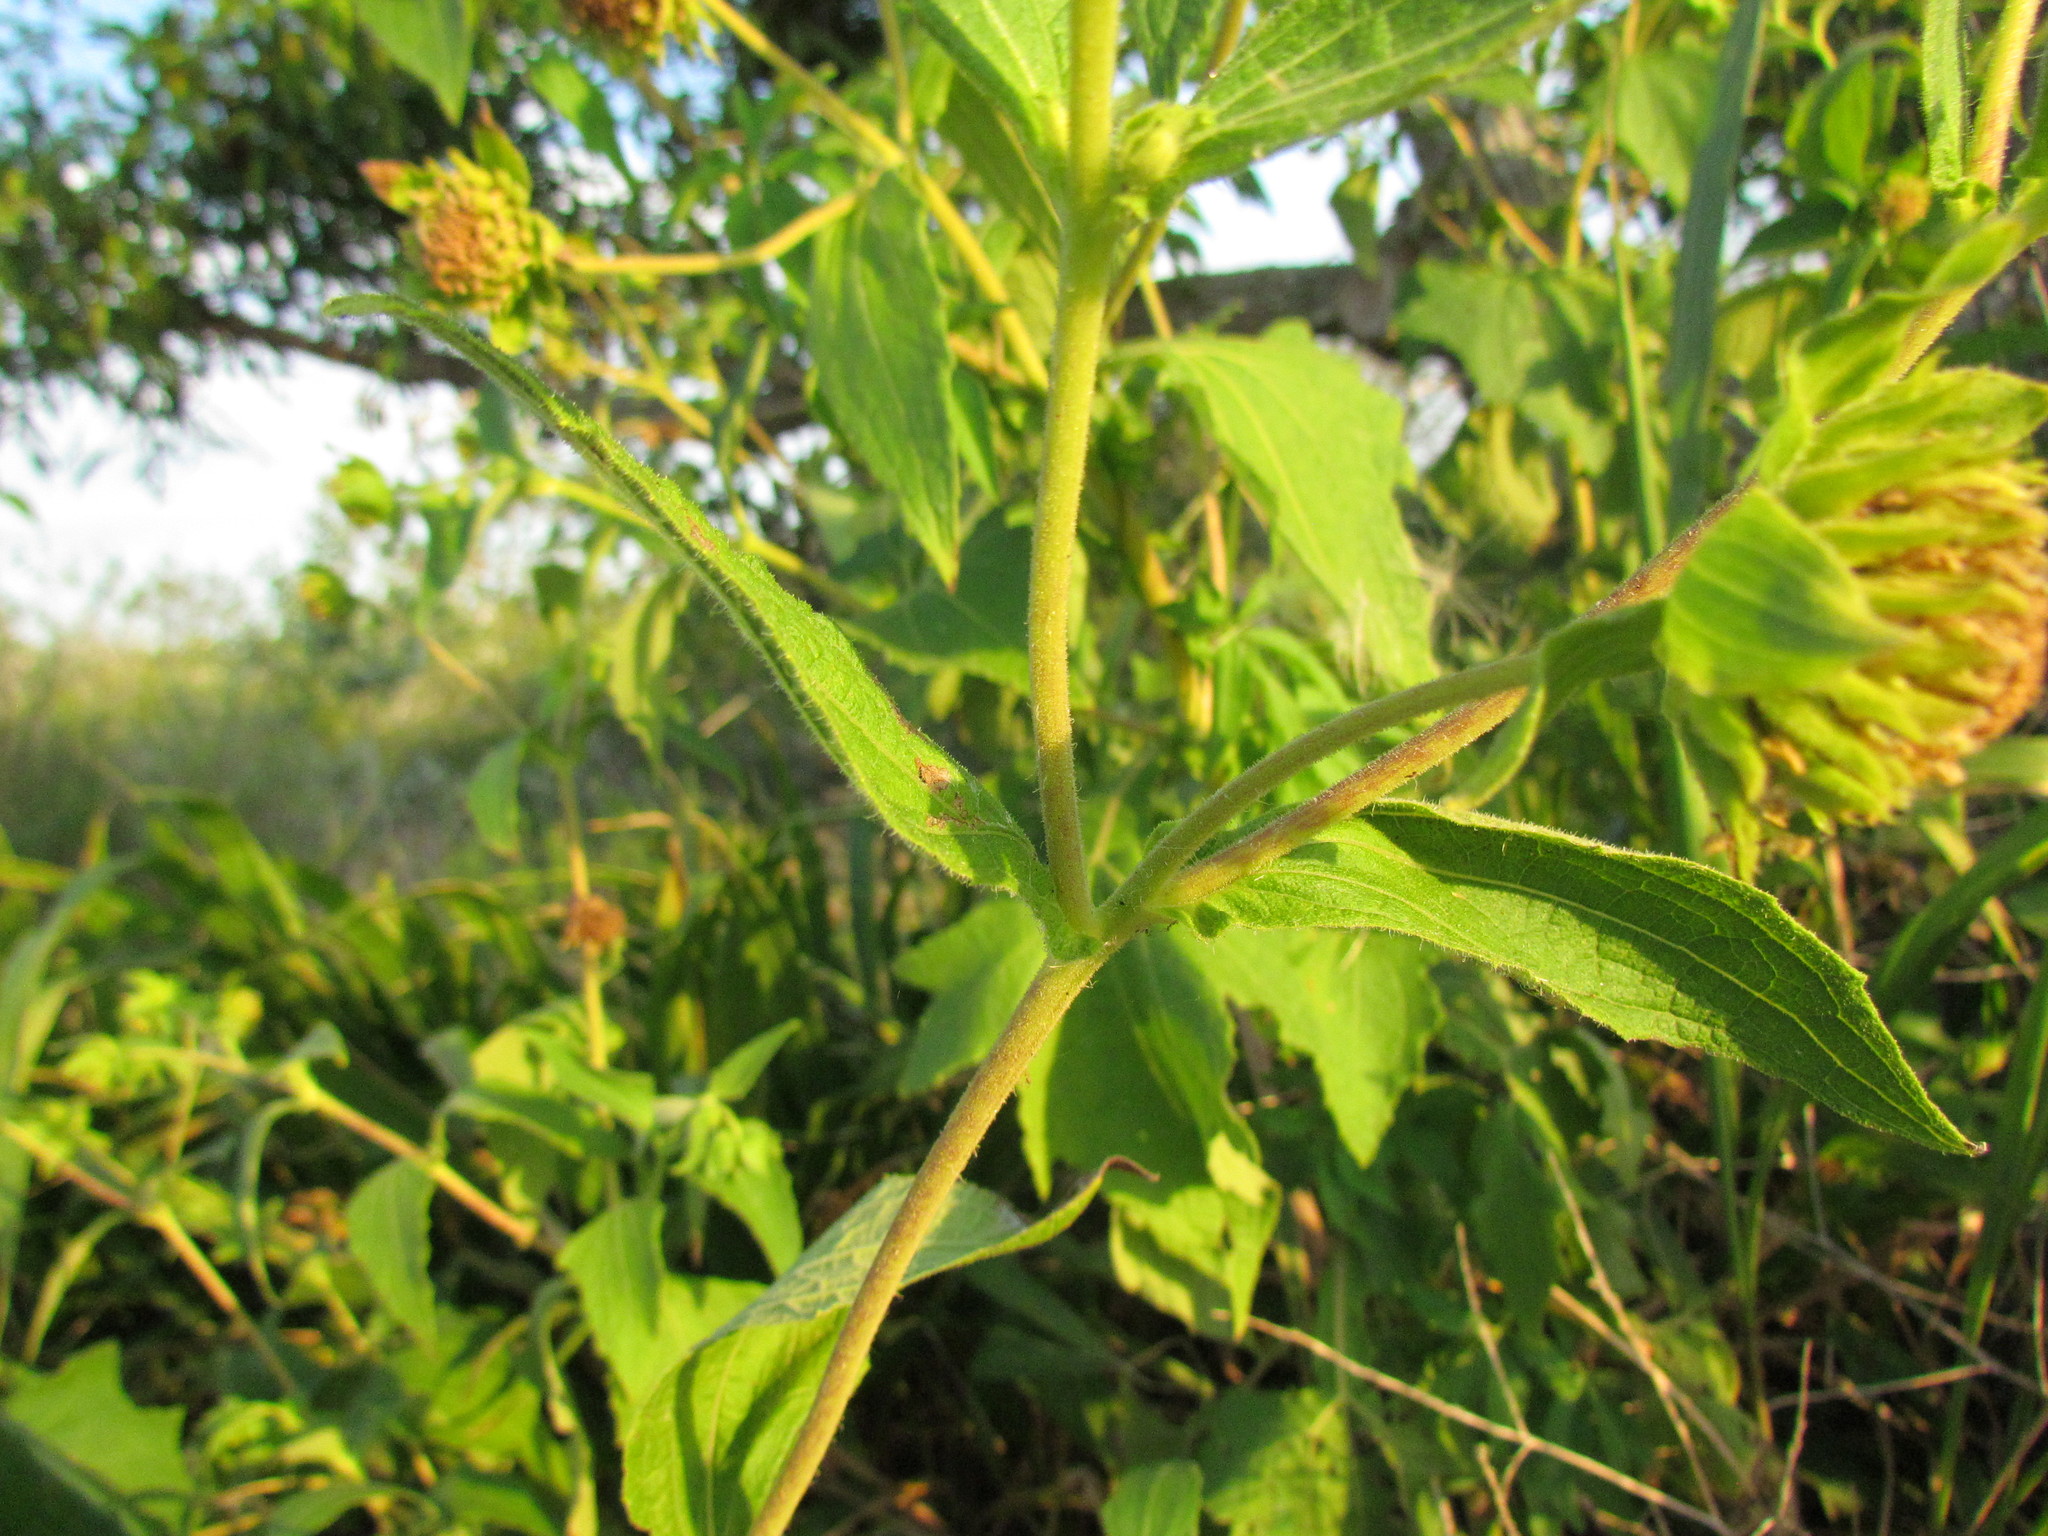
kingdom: Plantae
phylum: Tracheophyta
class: Magnoliopsida
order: Asterales
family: Asteraceae
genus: Smallanthus
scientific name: Smallanthus connatus
